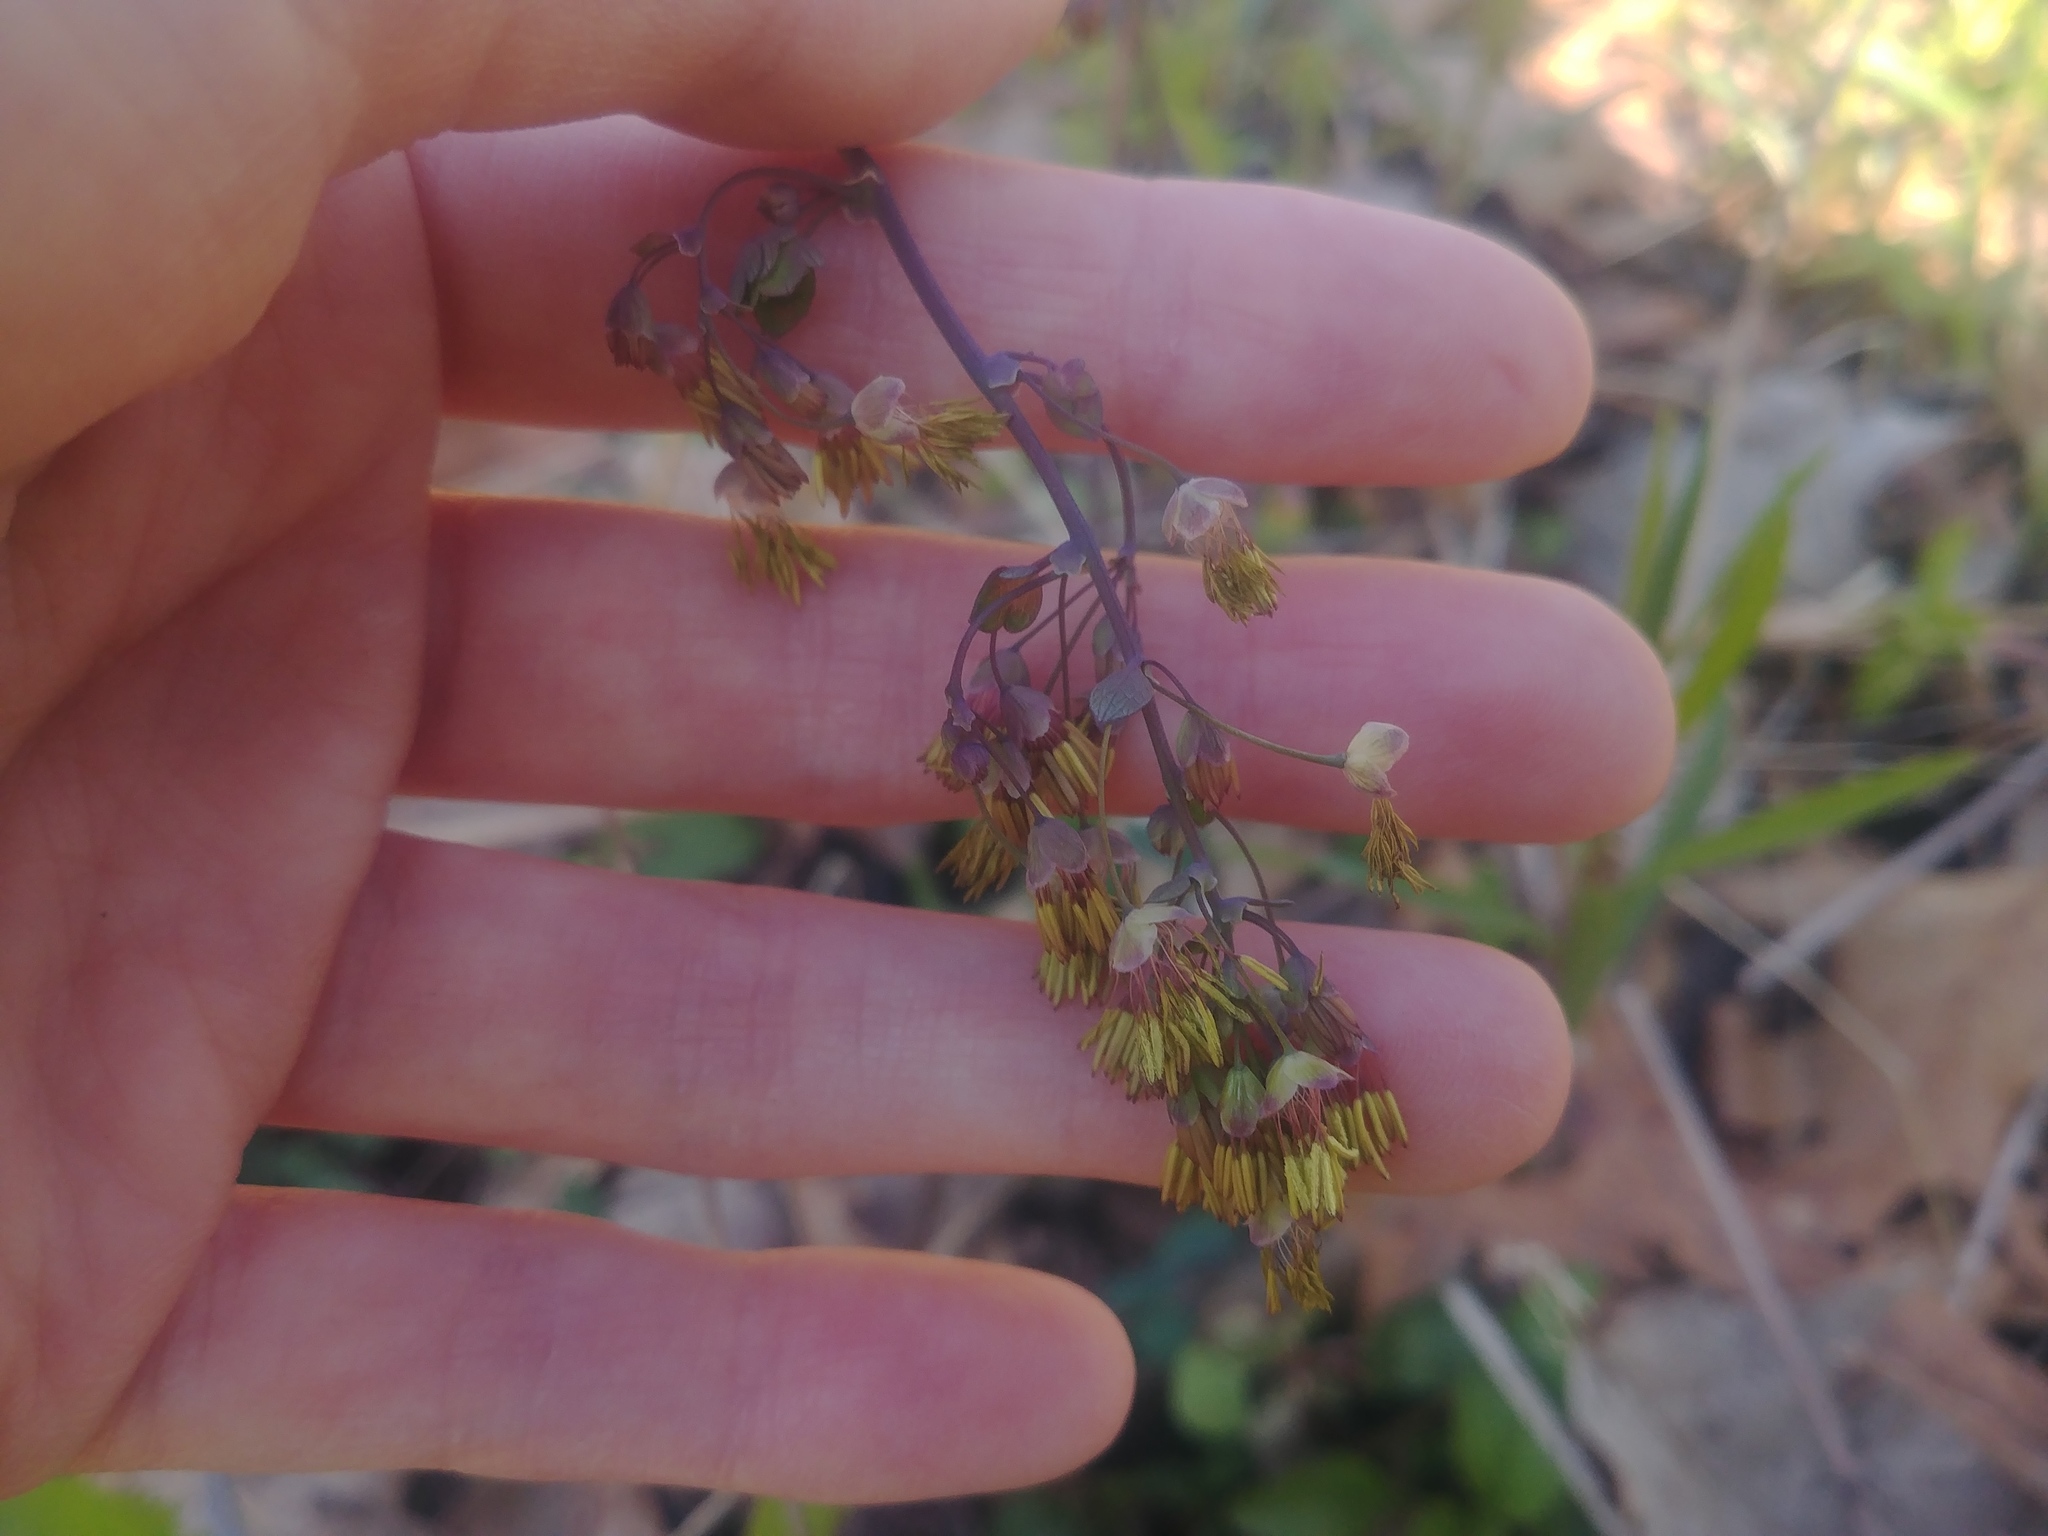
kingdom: Plantae
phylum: Tracheophyta
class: Magnoliopsida
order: Ranunculales
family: Ranunculaceae
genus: Thalictrum
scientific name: Thalictrum dioicum
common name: Early meadow-rue
